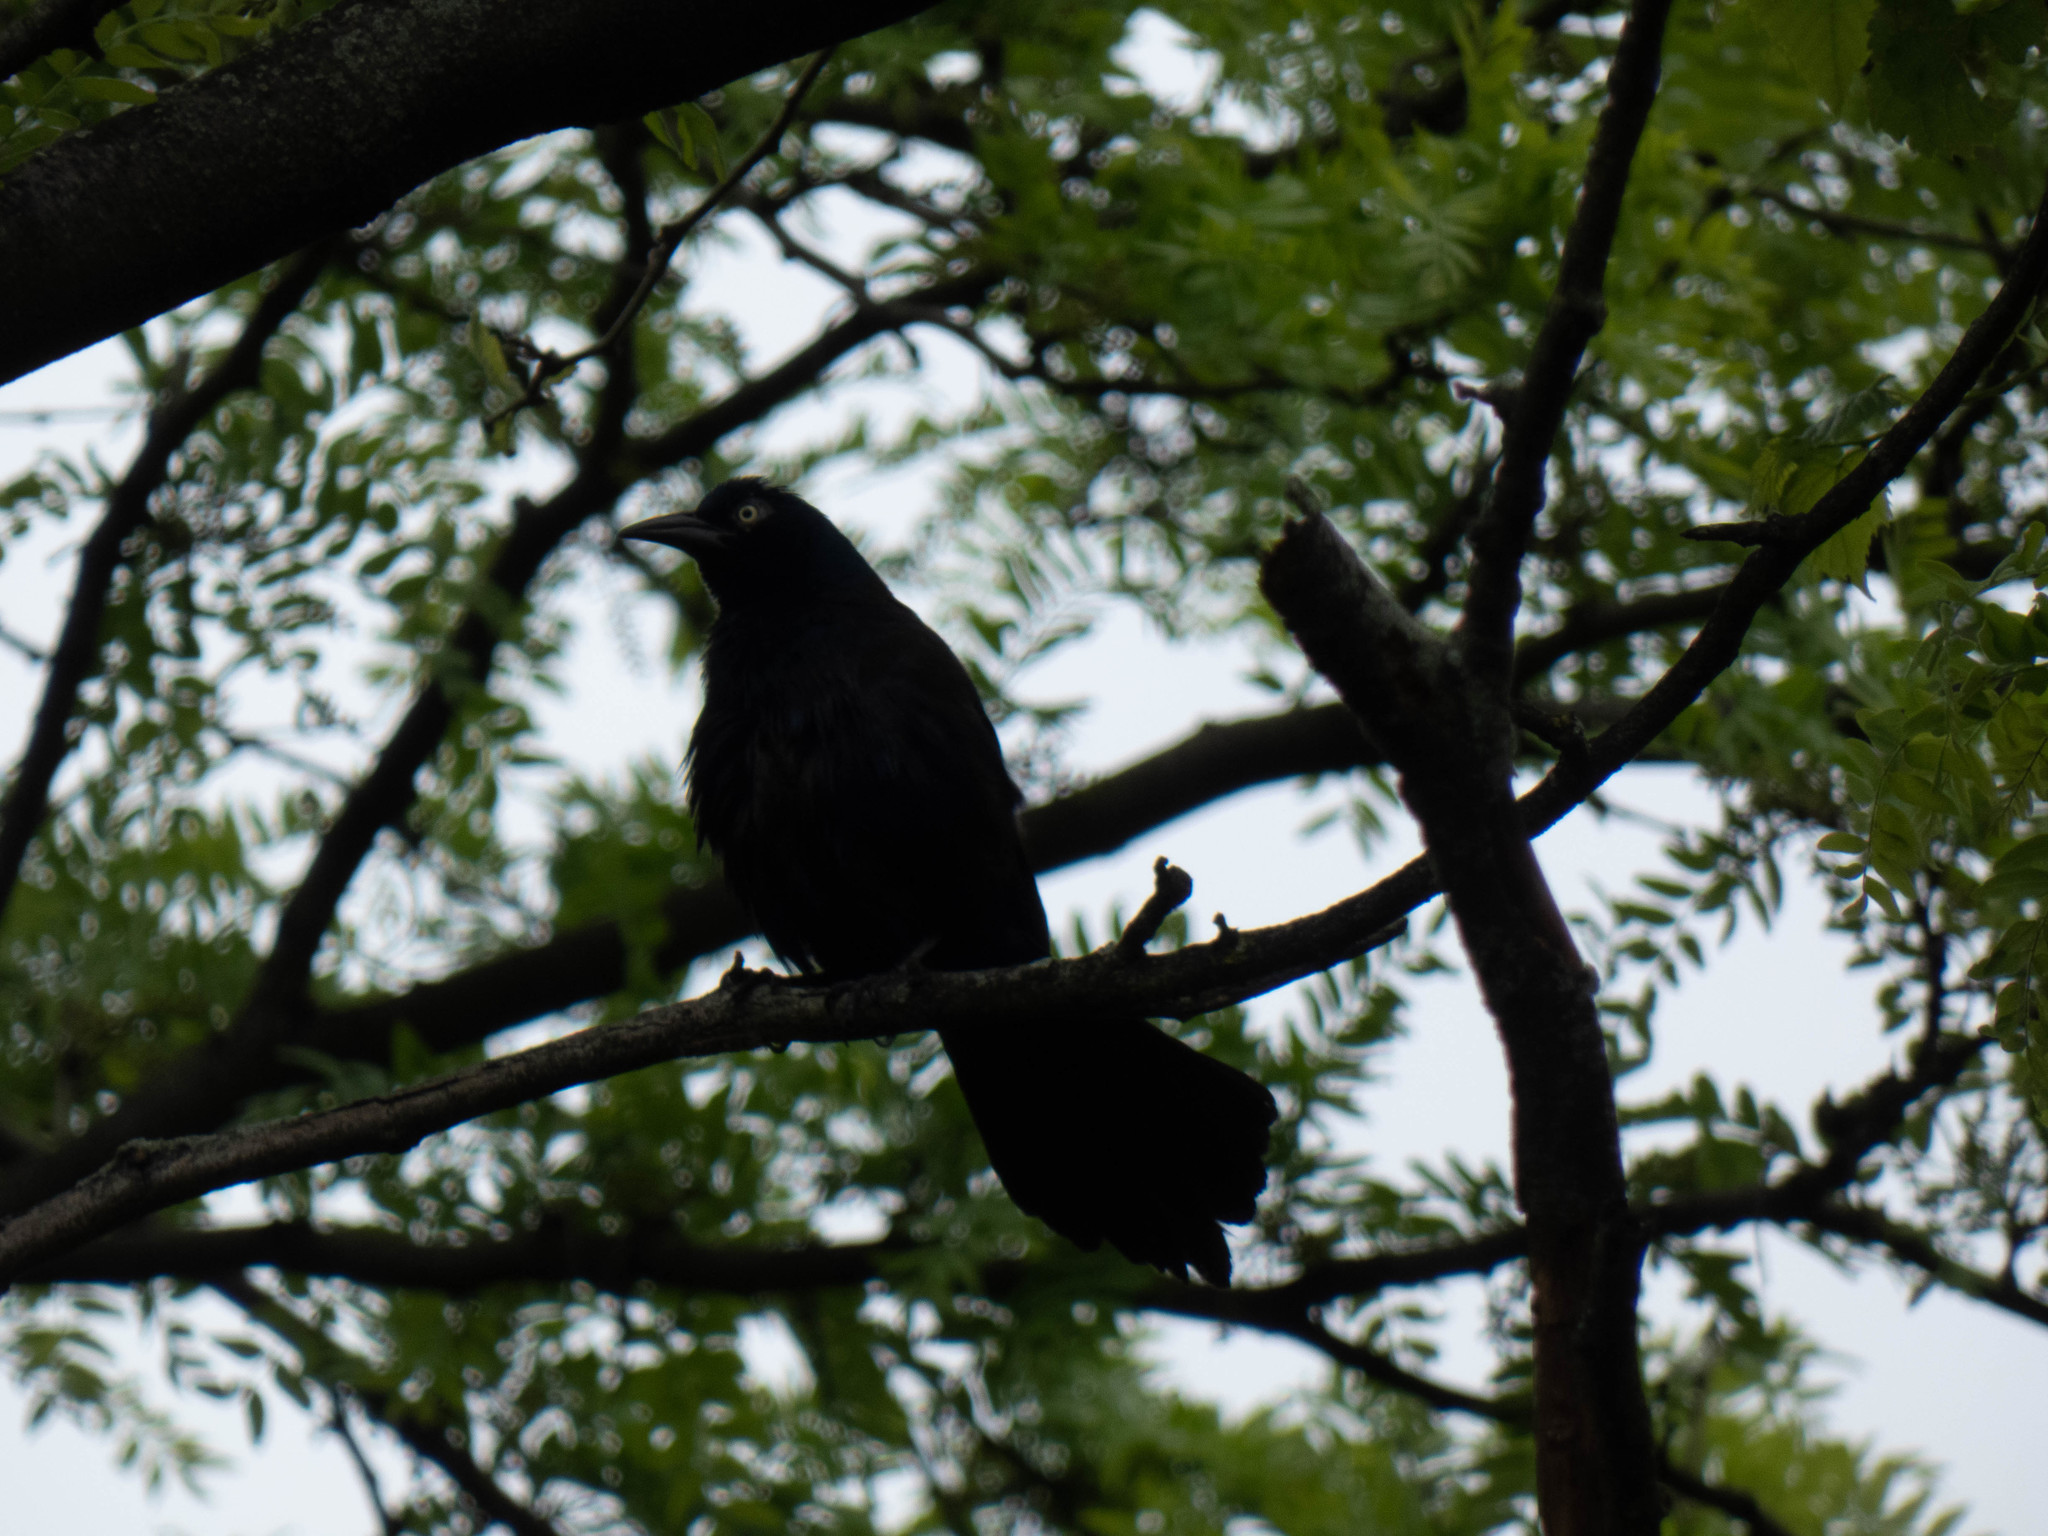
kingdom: Animalia
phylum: Chordata
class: Aves
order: Passeriformes
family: Icteridae
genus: Quiscalus
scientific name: Quiscalus quiscula
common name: Common grackle
